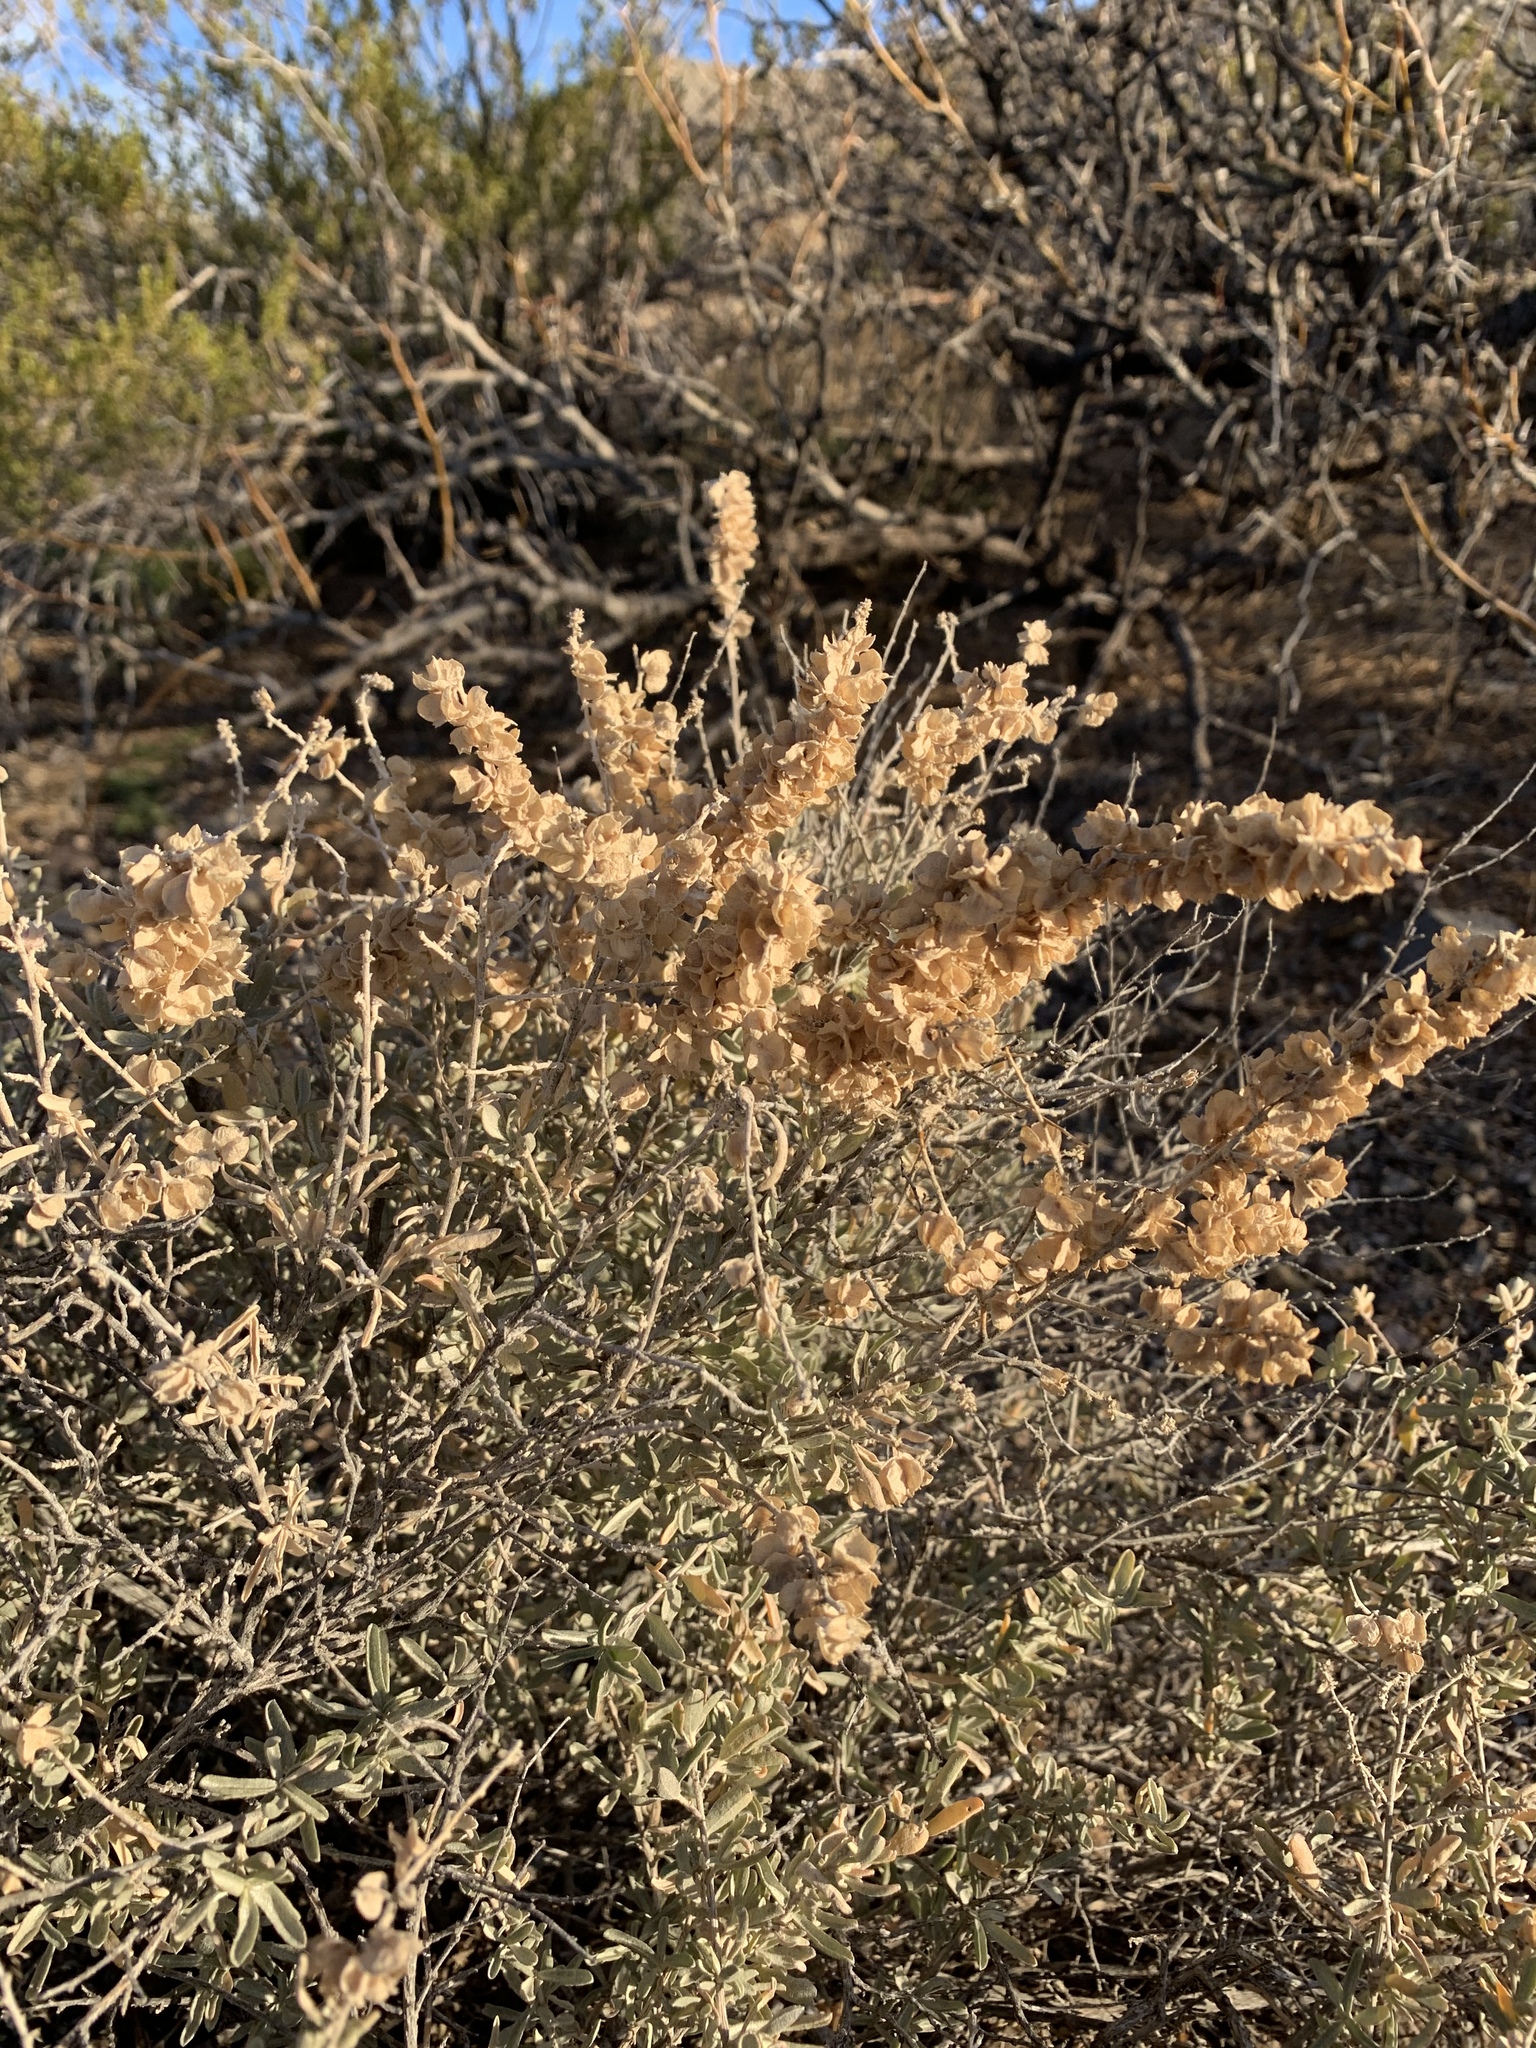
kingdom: Plantae
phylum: Tracheophyta
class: Magnoliopsida
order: Caryophyllales
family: Amaranthaceae
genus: Atriplex
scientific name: Atriplex canescens
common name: Four-wing saltbush
